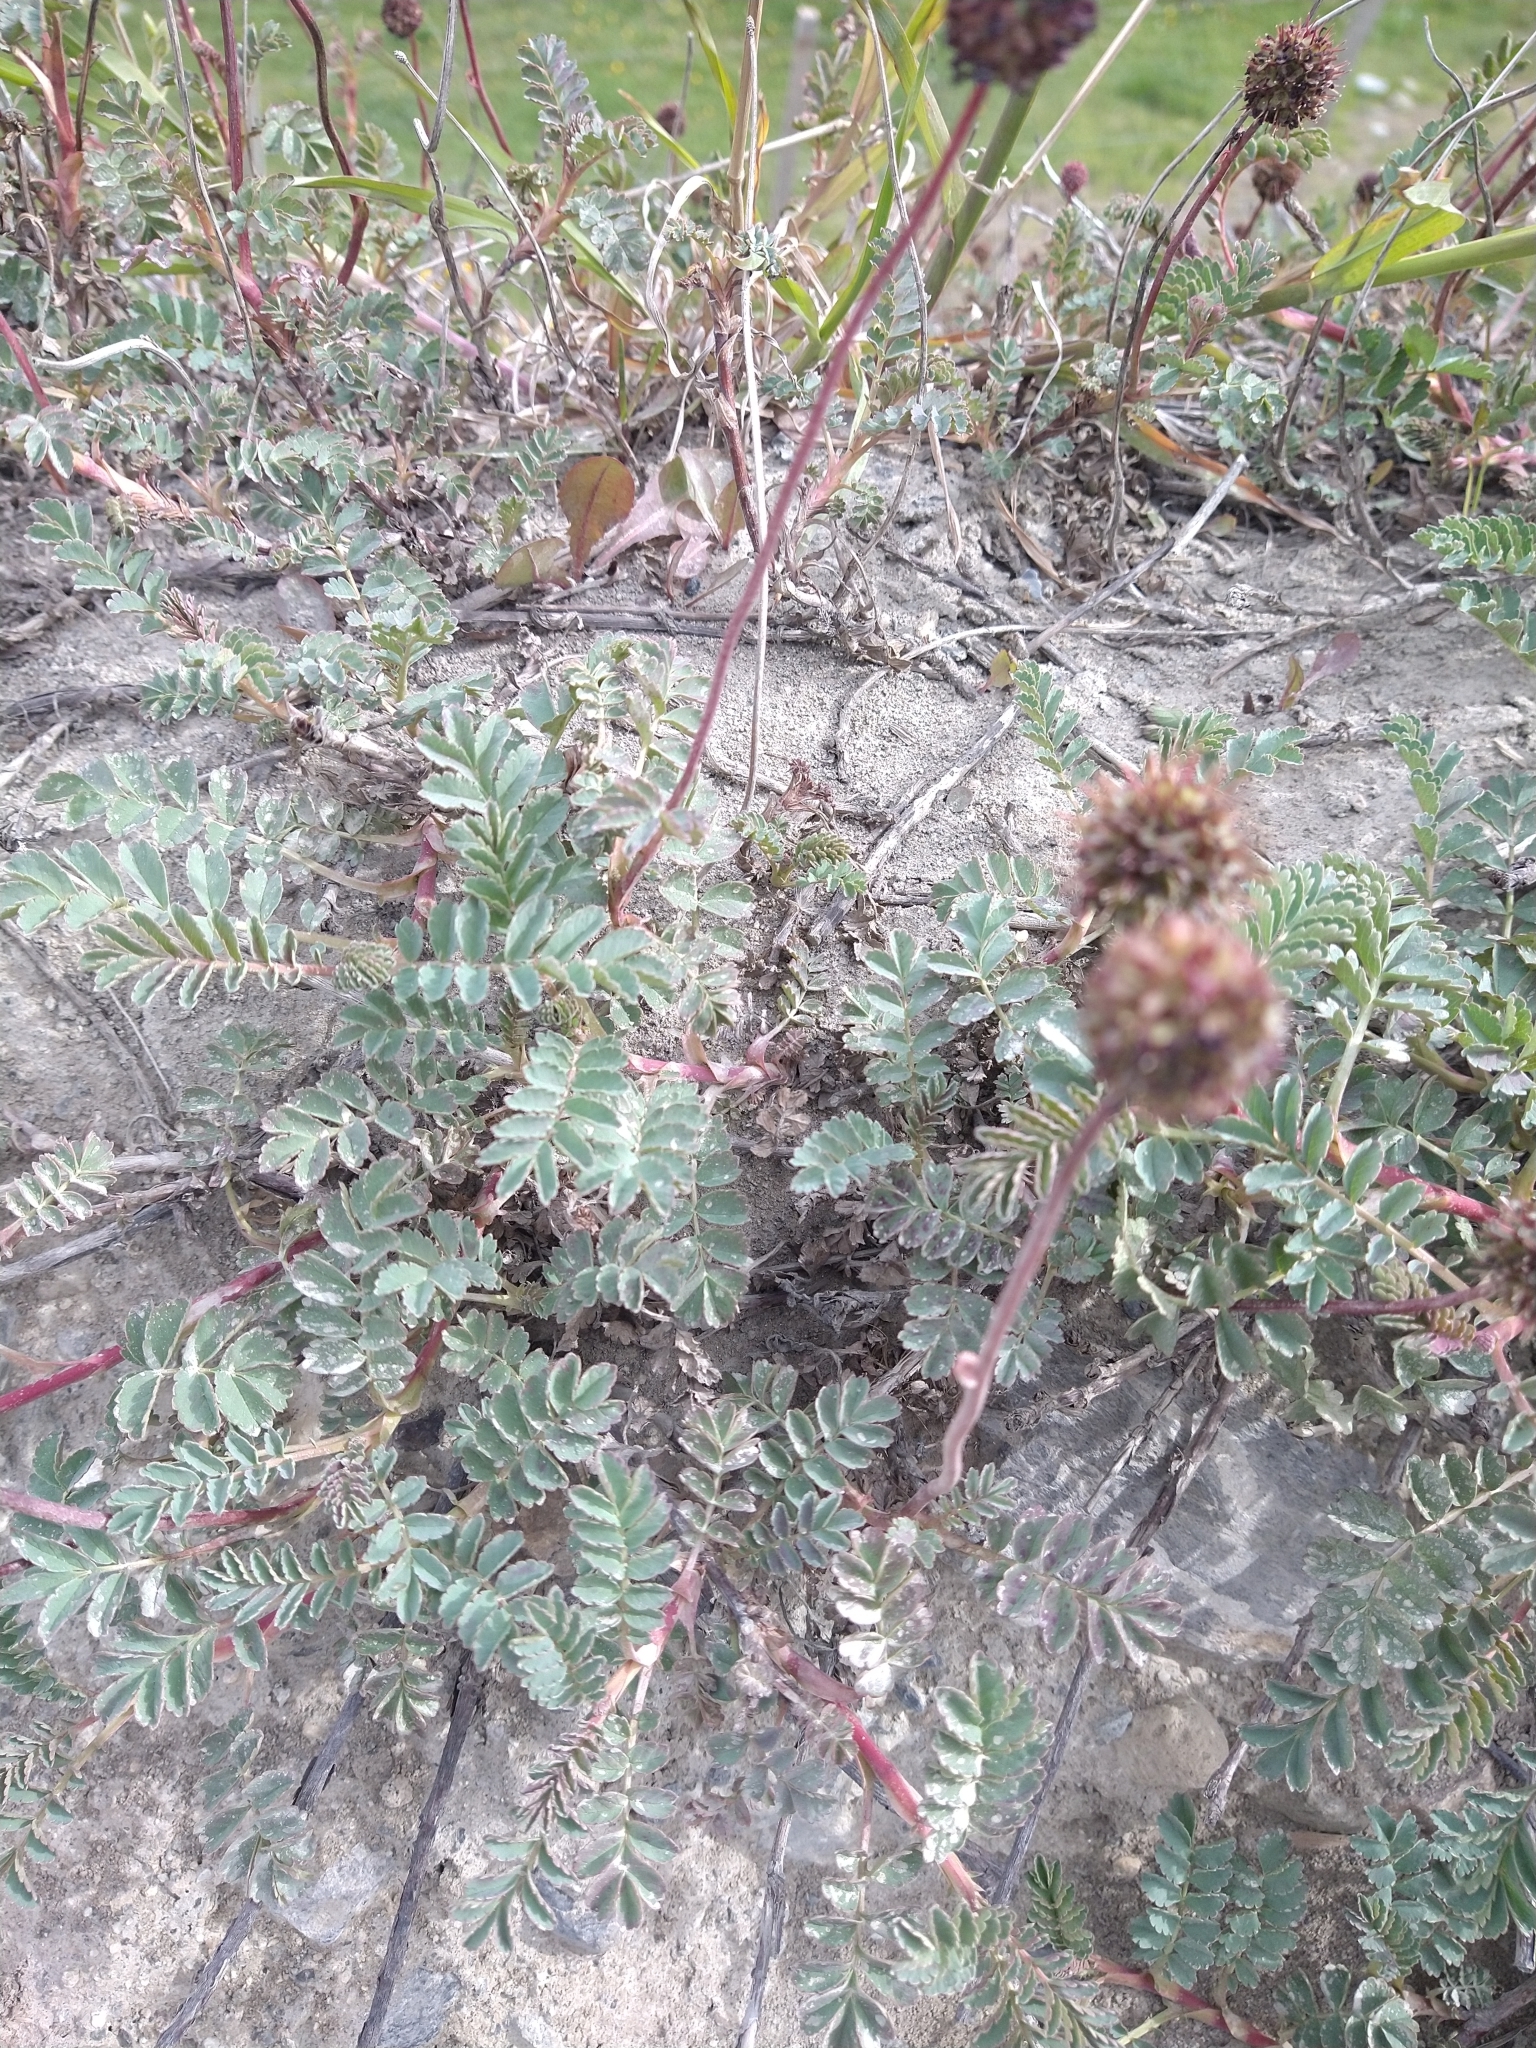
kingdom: Plantae
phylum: Tracheophyta
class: Magnoliopsida
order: Rosales
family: Rosaceae
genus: Acaena
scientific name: Acaena magellanica
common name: New zealand burr
